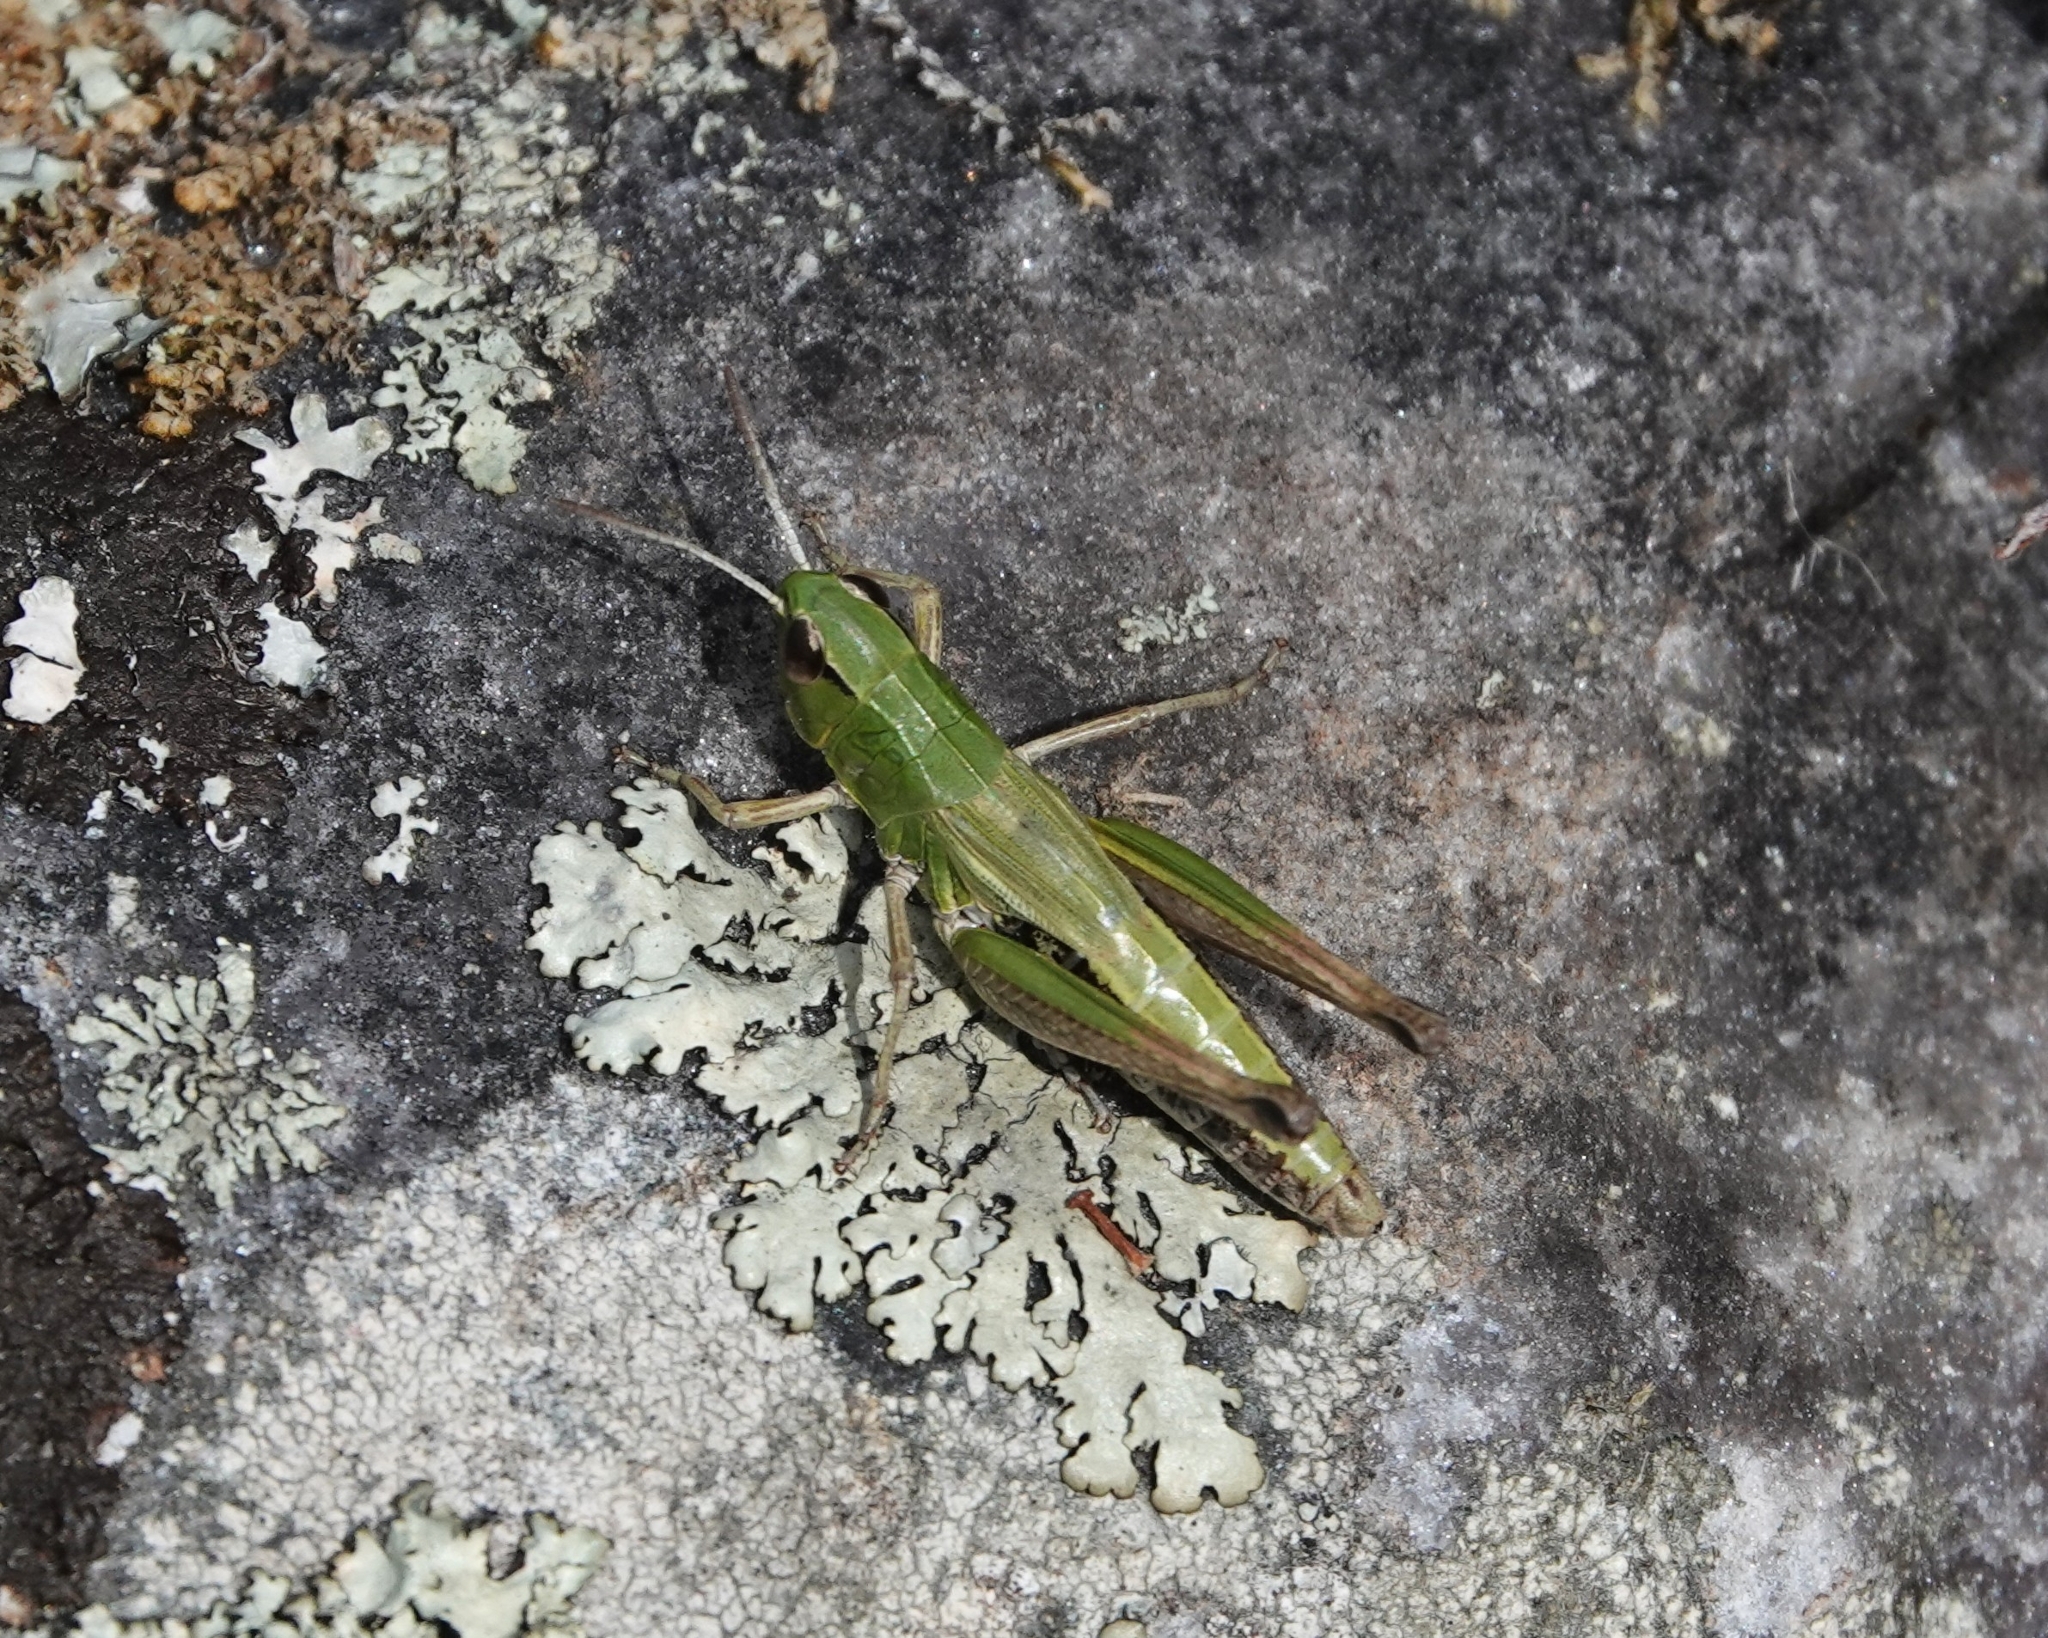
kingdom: Animalia
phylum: Arthropoda
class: Insecta
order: Orthoptera
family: Acrididae
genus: Pseudochorthippus
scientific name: Pseudochorthippus parallelus
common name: Meadow grasshopper
